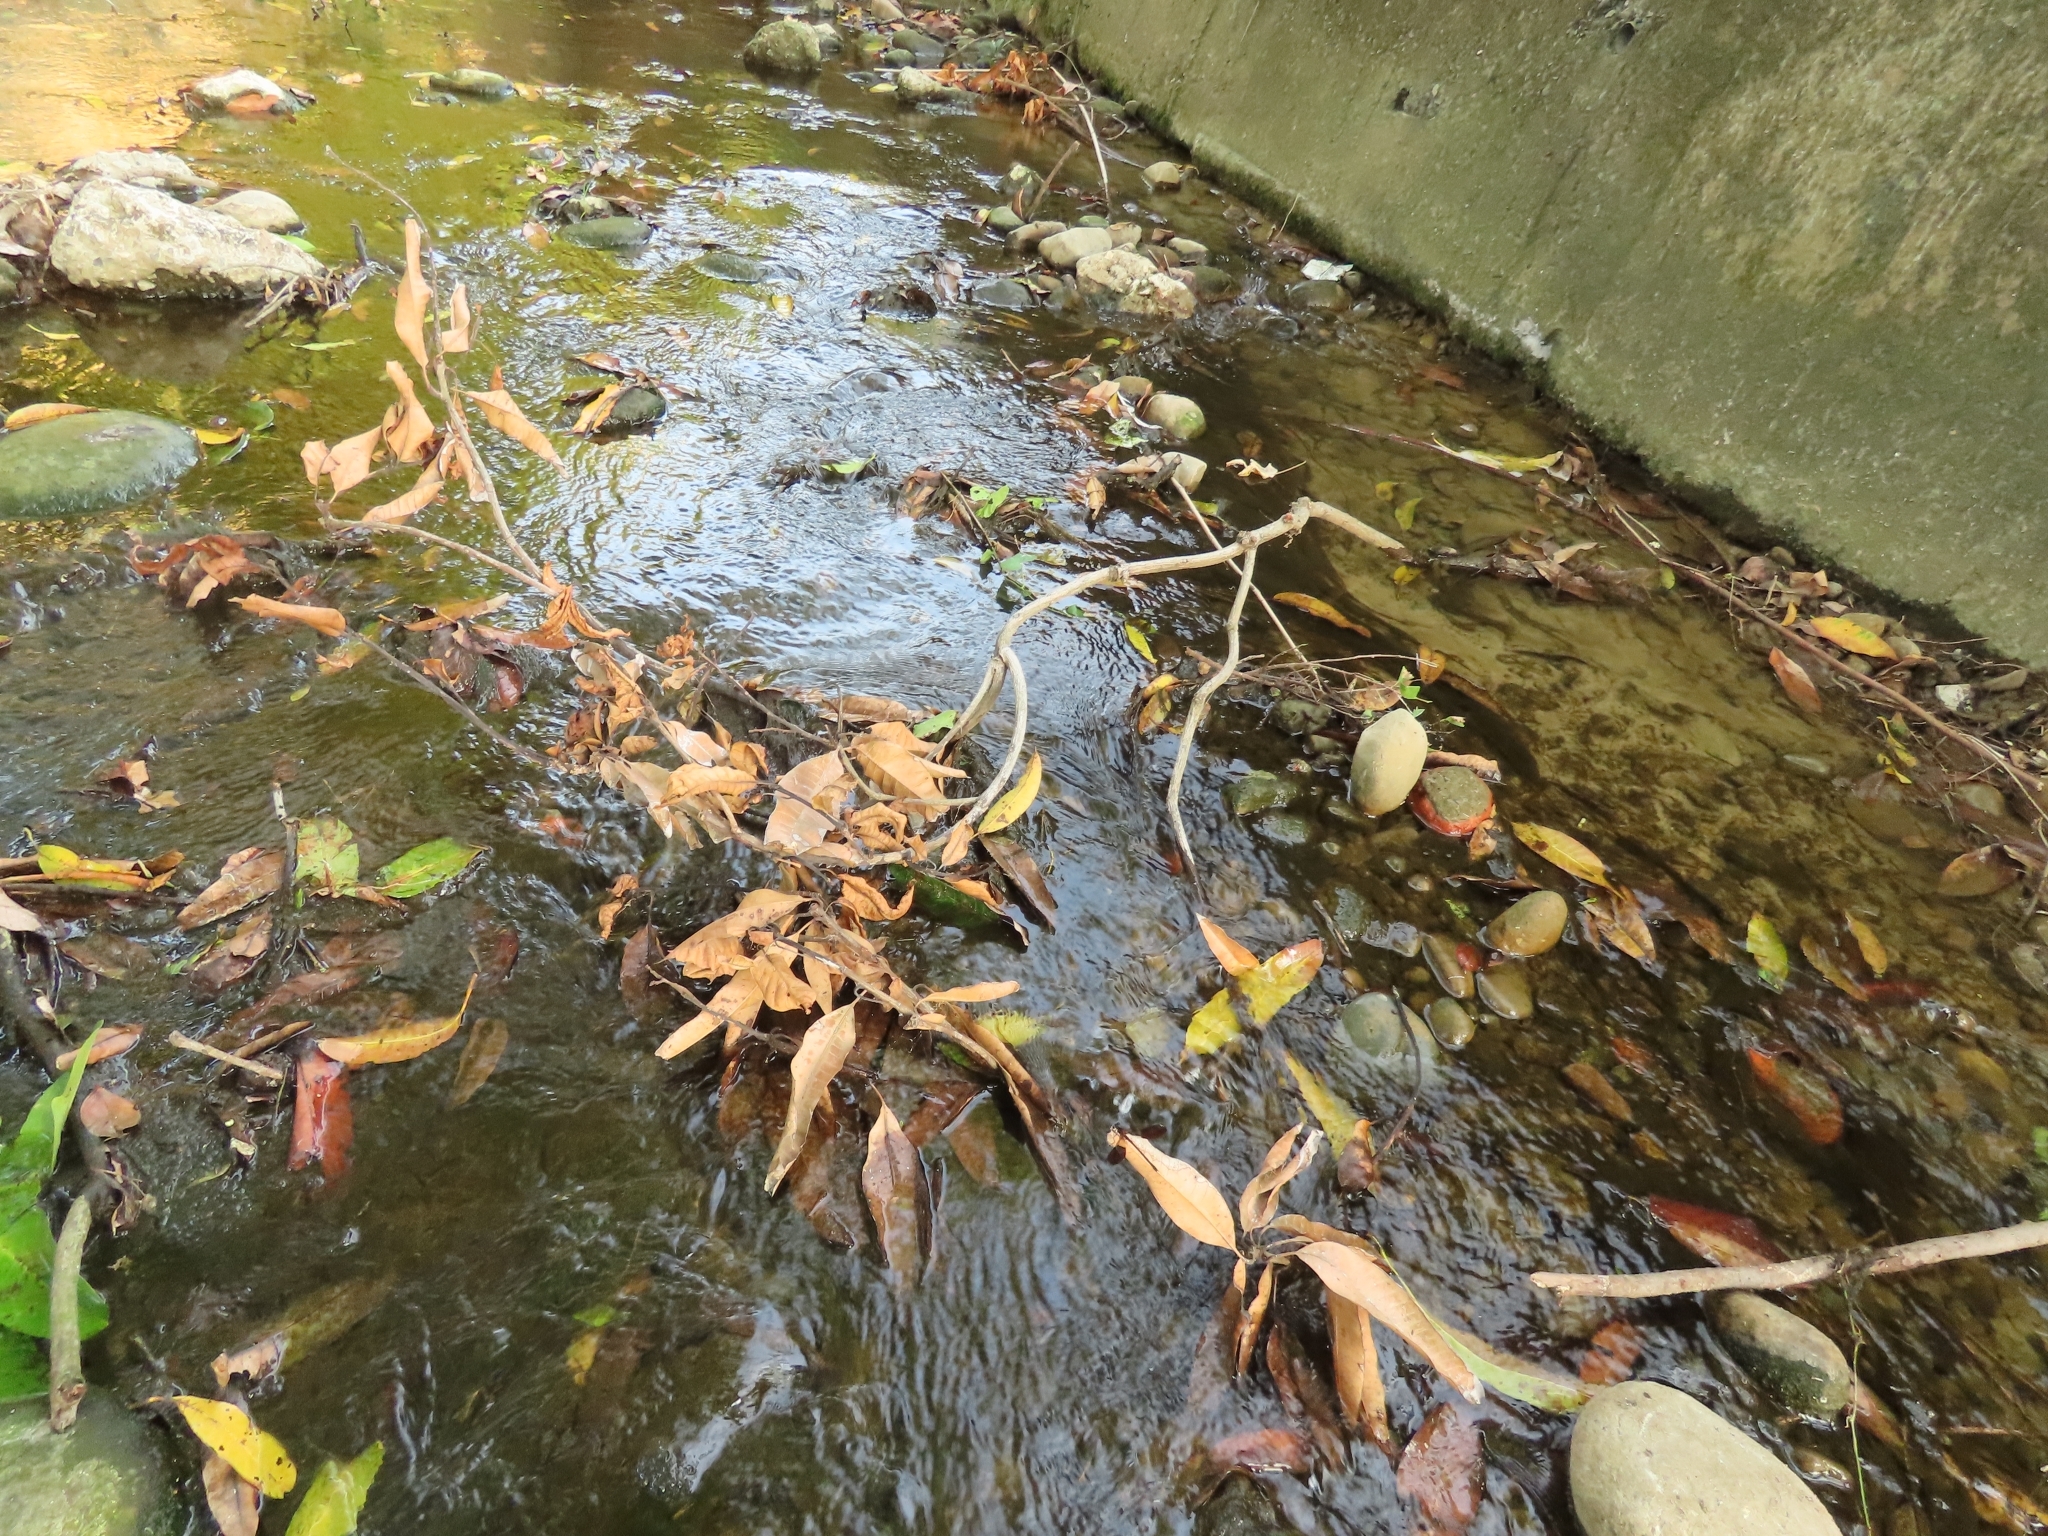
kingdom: Animalia
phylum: Arthropoda
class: Insecta
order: Odonata
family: Euphaeidae
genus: Euphaea
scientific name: Euphaea formosa
